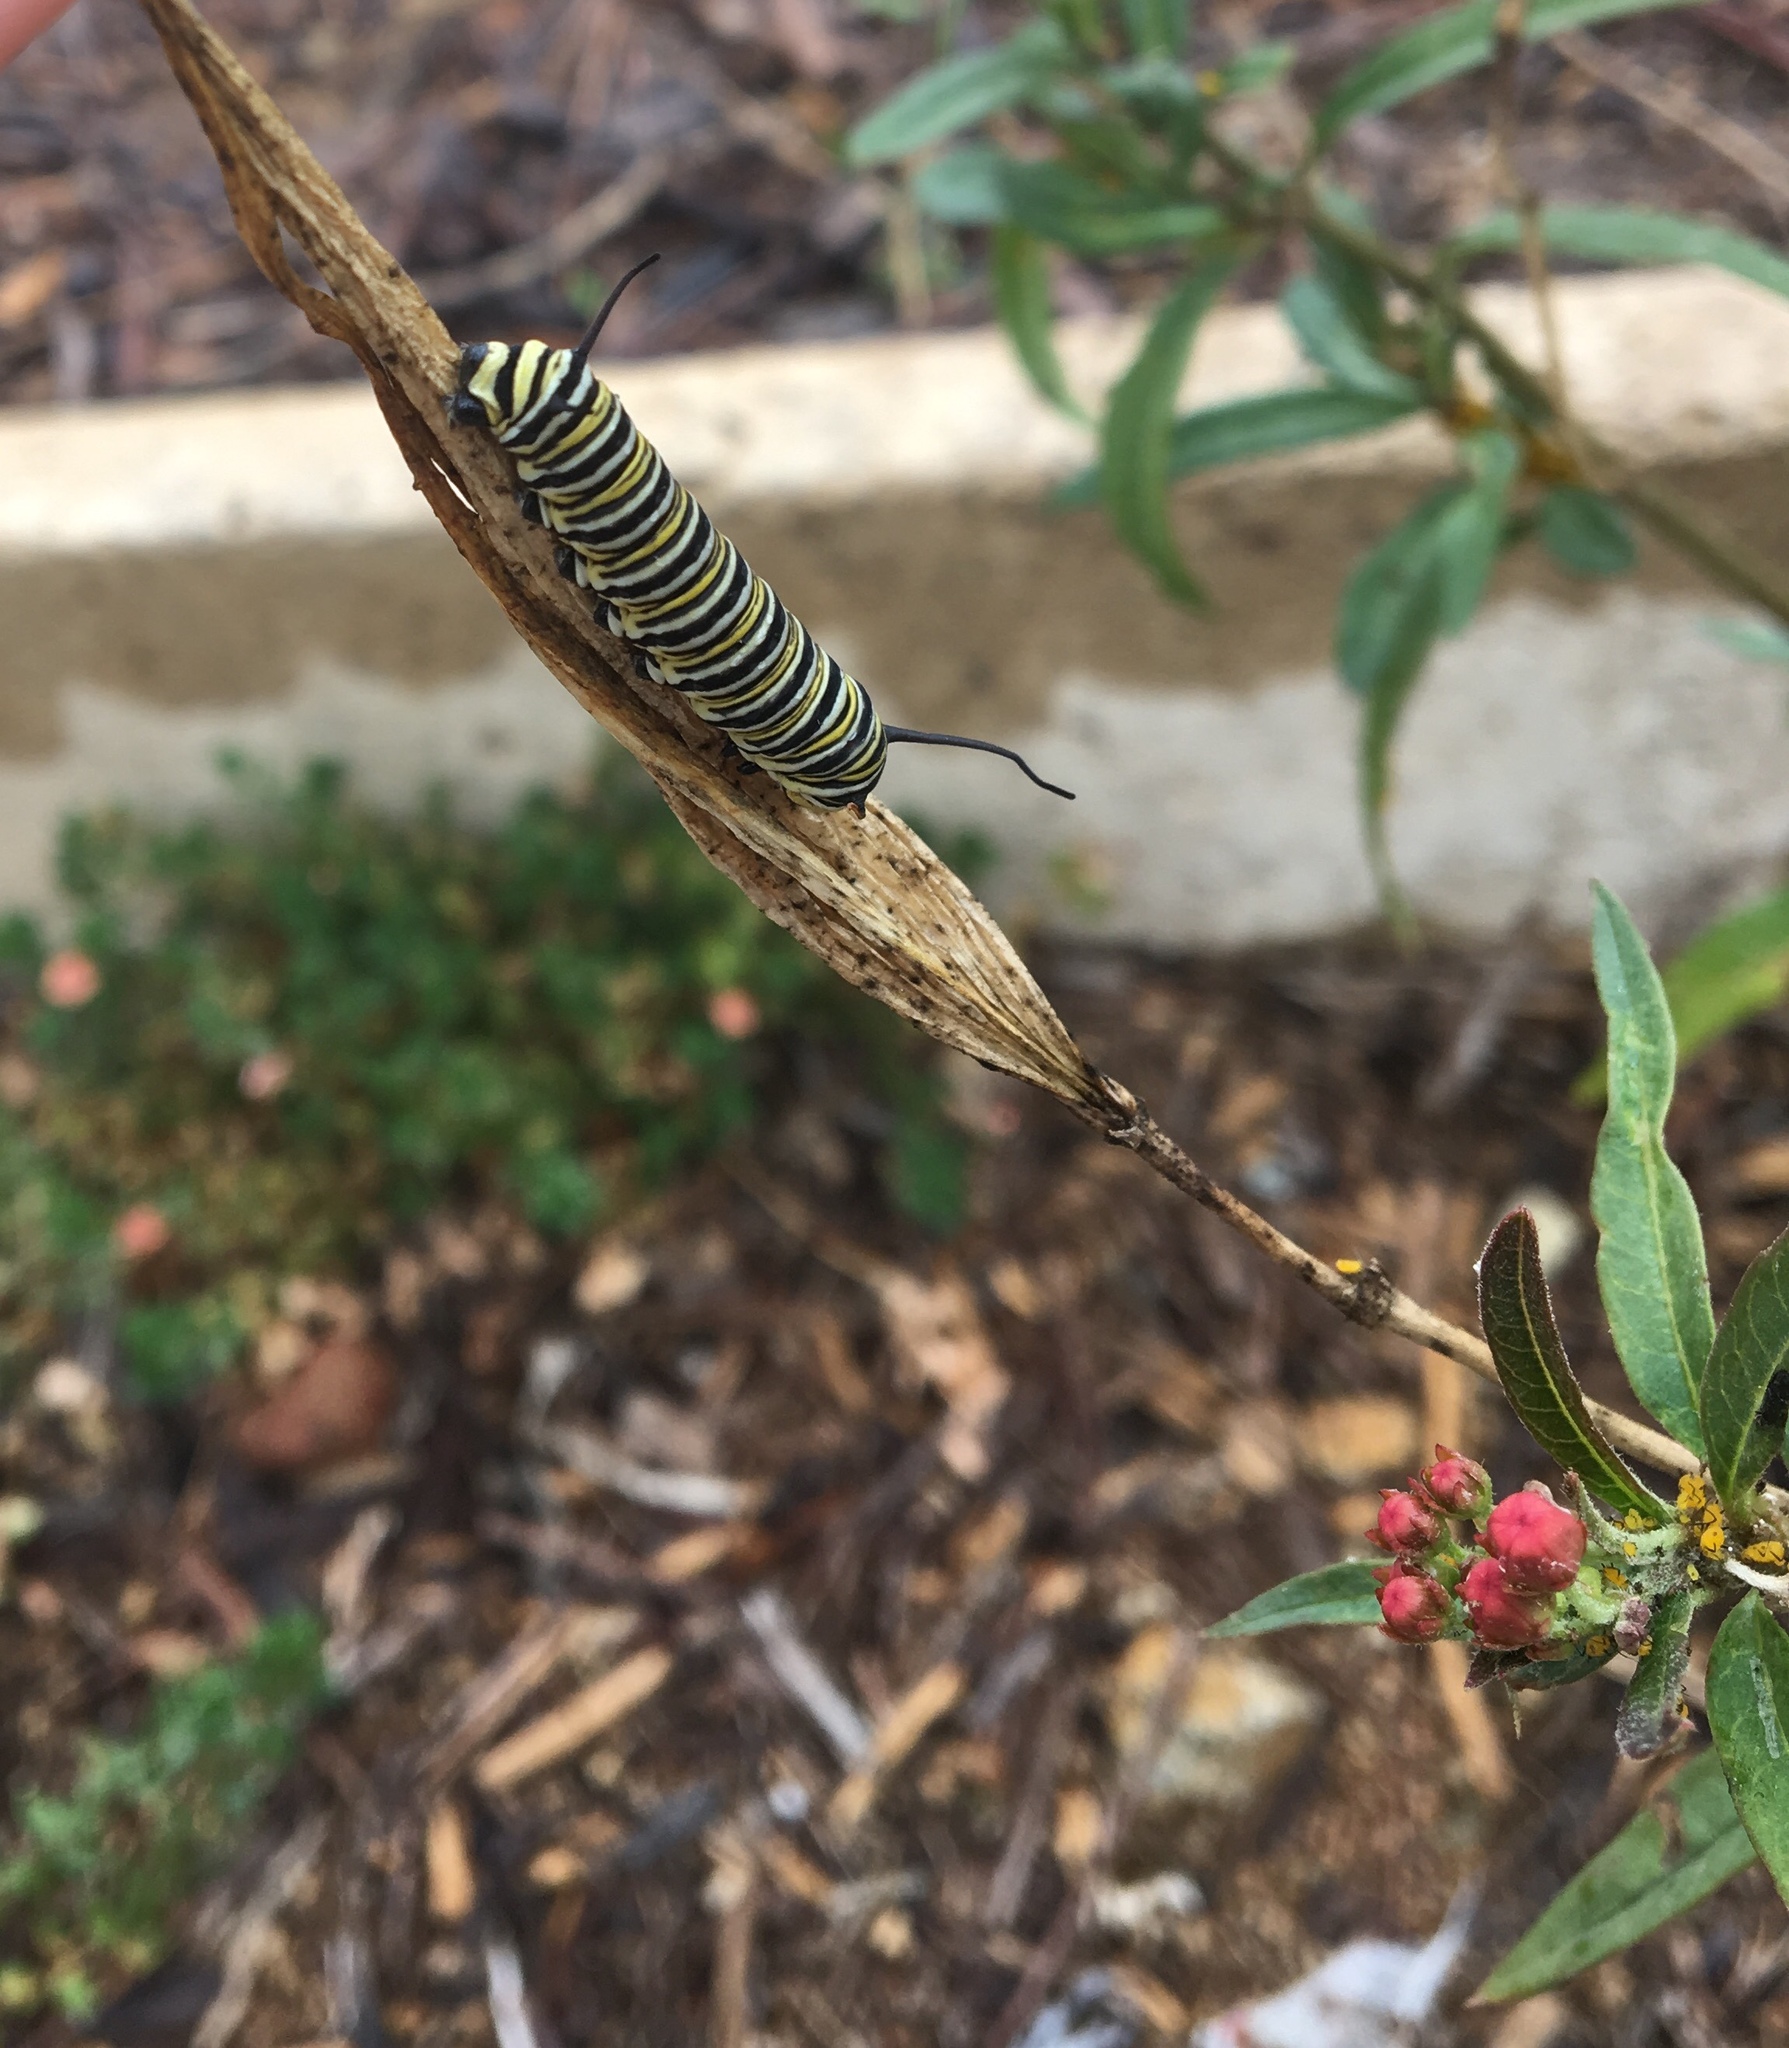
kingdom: Animalia
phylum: Arthropoda
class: Insecta
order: Lepidoptera
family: Nymphalidae
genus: Danaus
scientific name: Danaus plexippus
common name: Monarch
